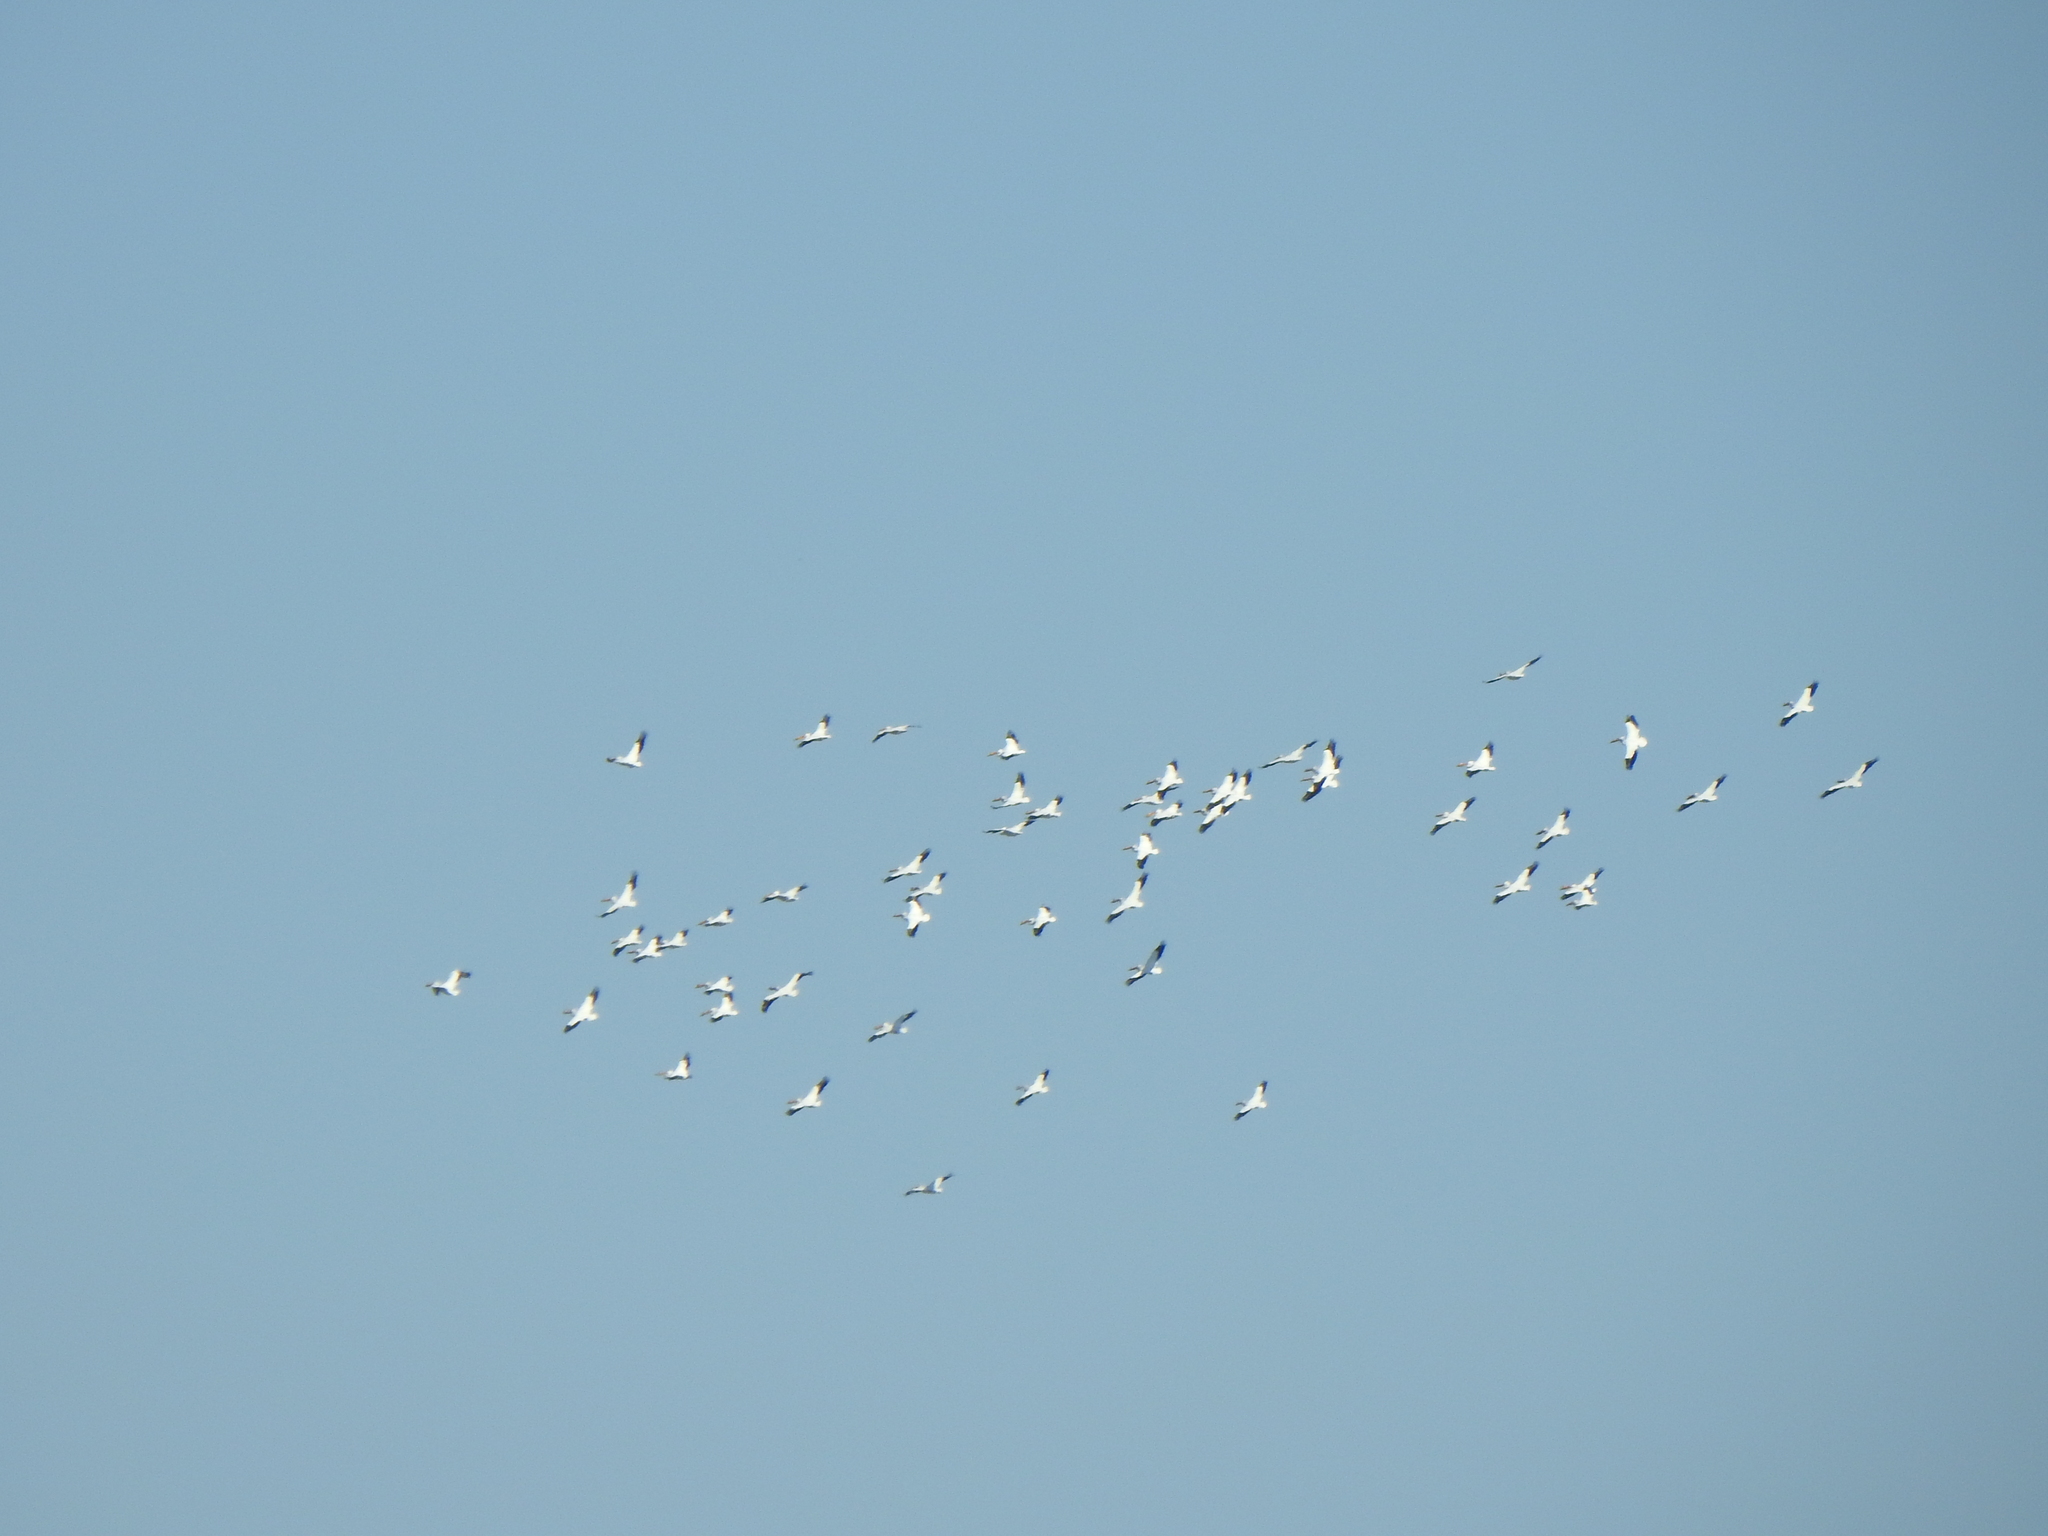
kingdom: Animalia
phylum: Chordata
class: Aves
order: Pelecaniformes
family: Pelecanidae
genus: Pelecanus
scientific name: Pelecanus erythrorhynchos
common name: American white pelican
